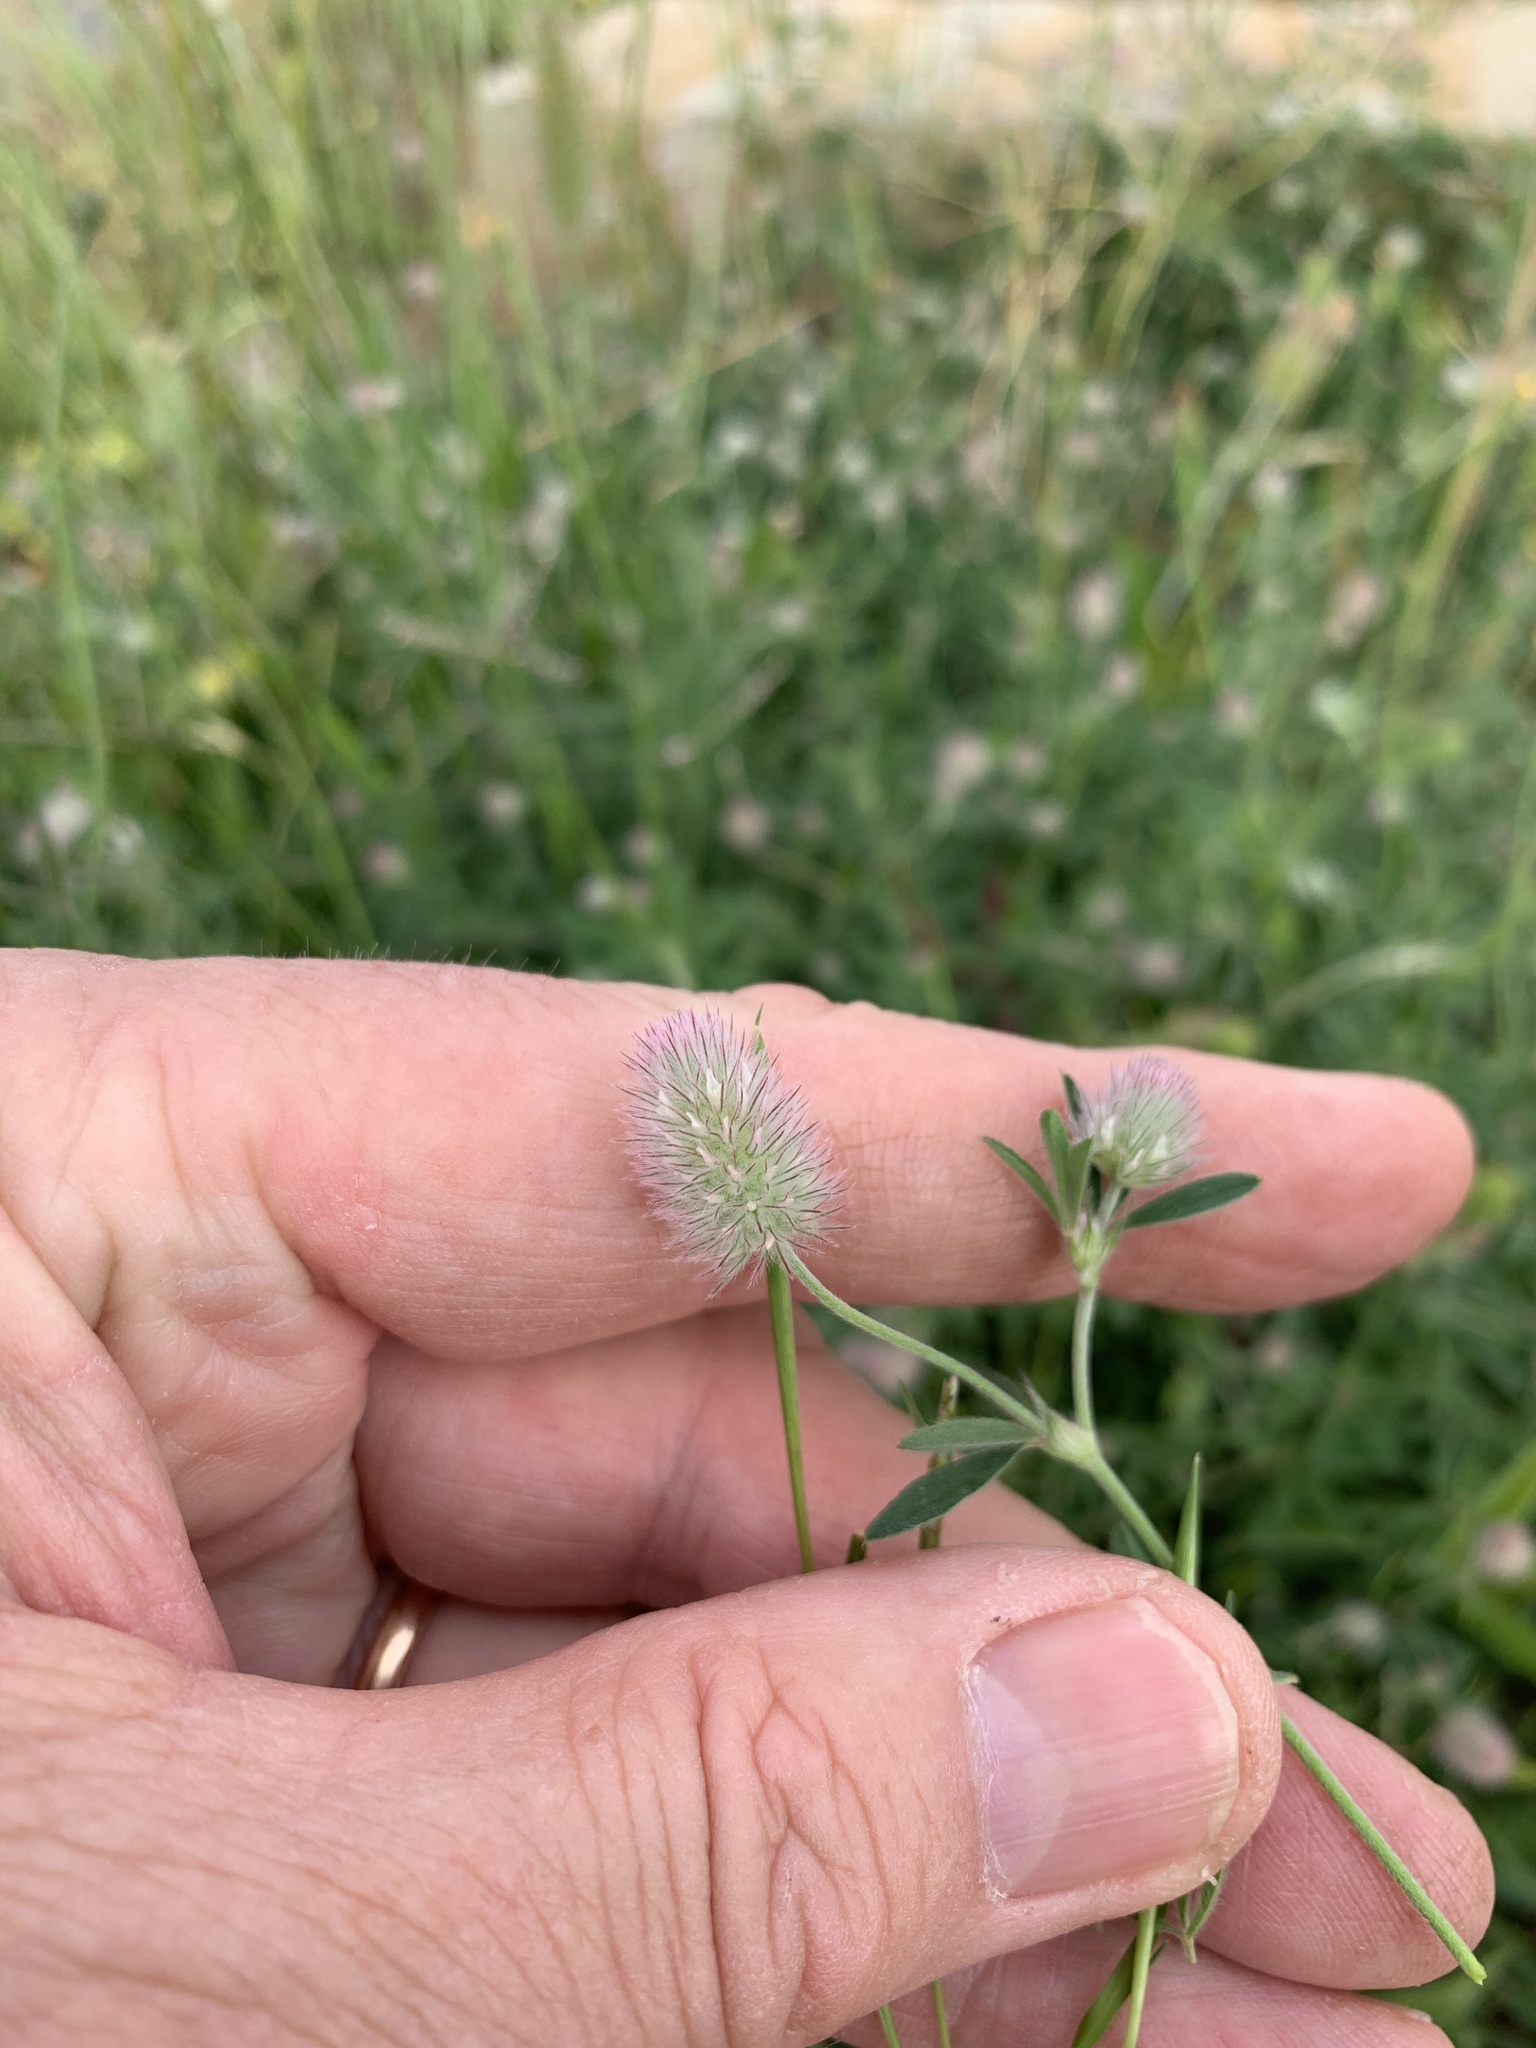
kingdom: Plantae
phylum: Tracheophyta
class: Magnoliopsida
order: Fabales
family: Fabaceae
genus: Trifolium
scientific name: Trifolium arvense
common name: Hare's-foot clover
